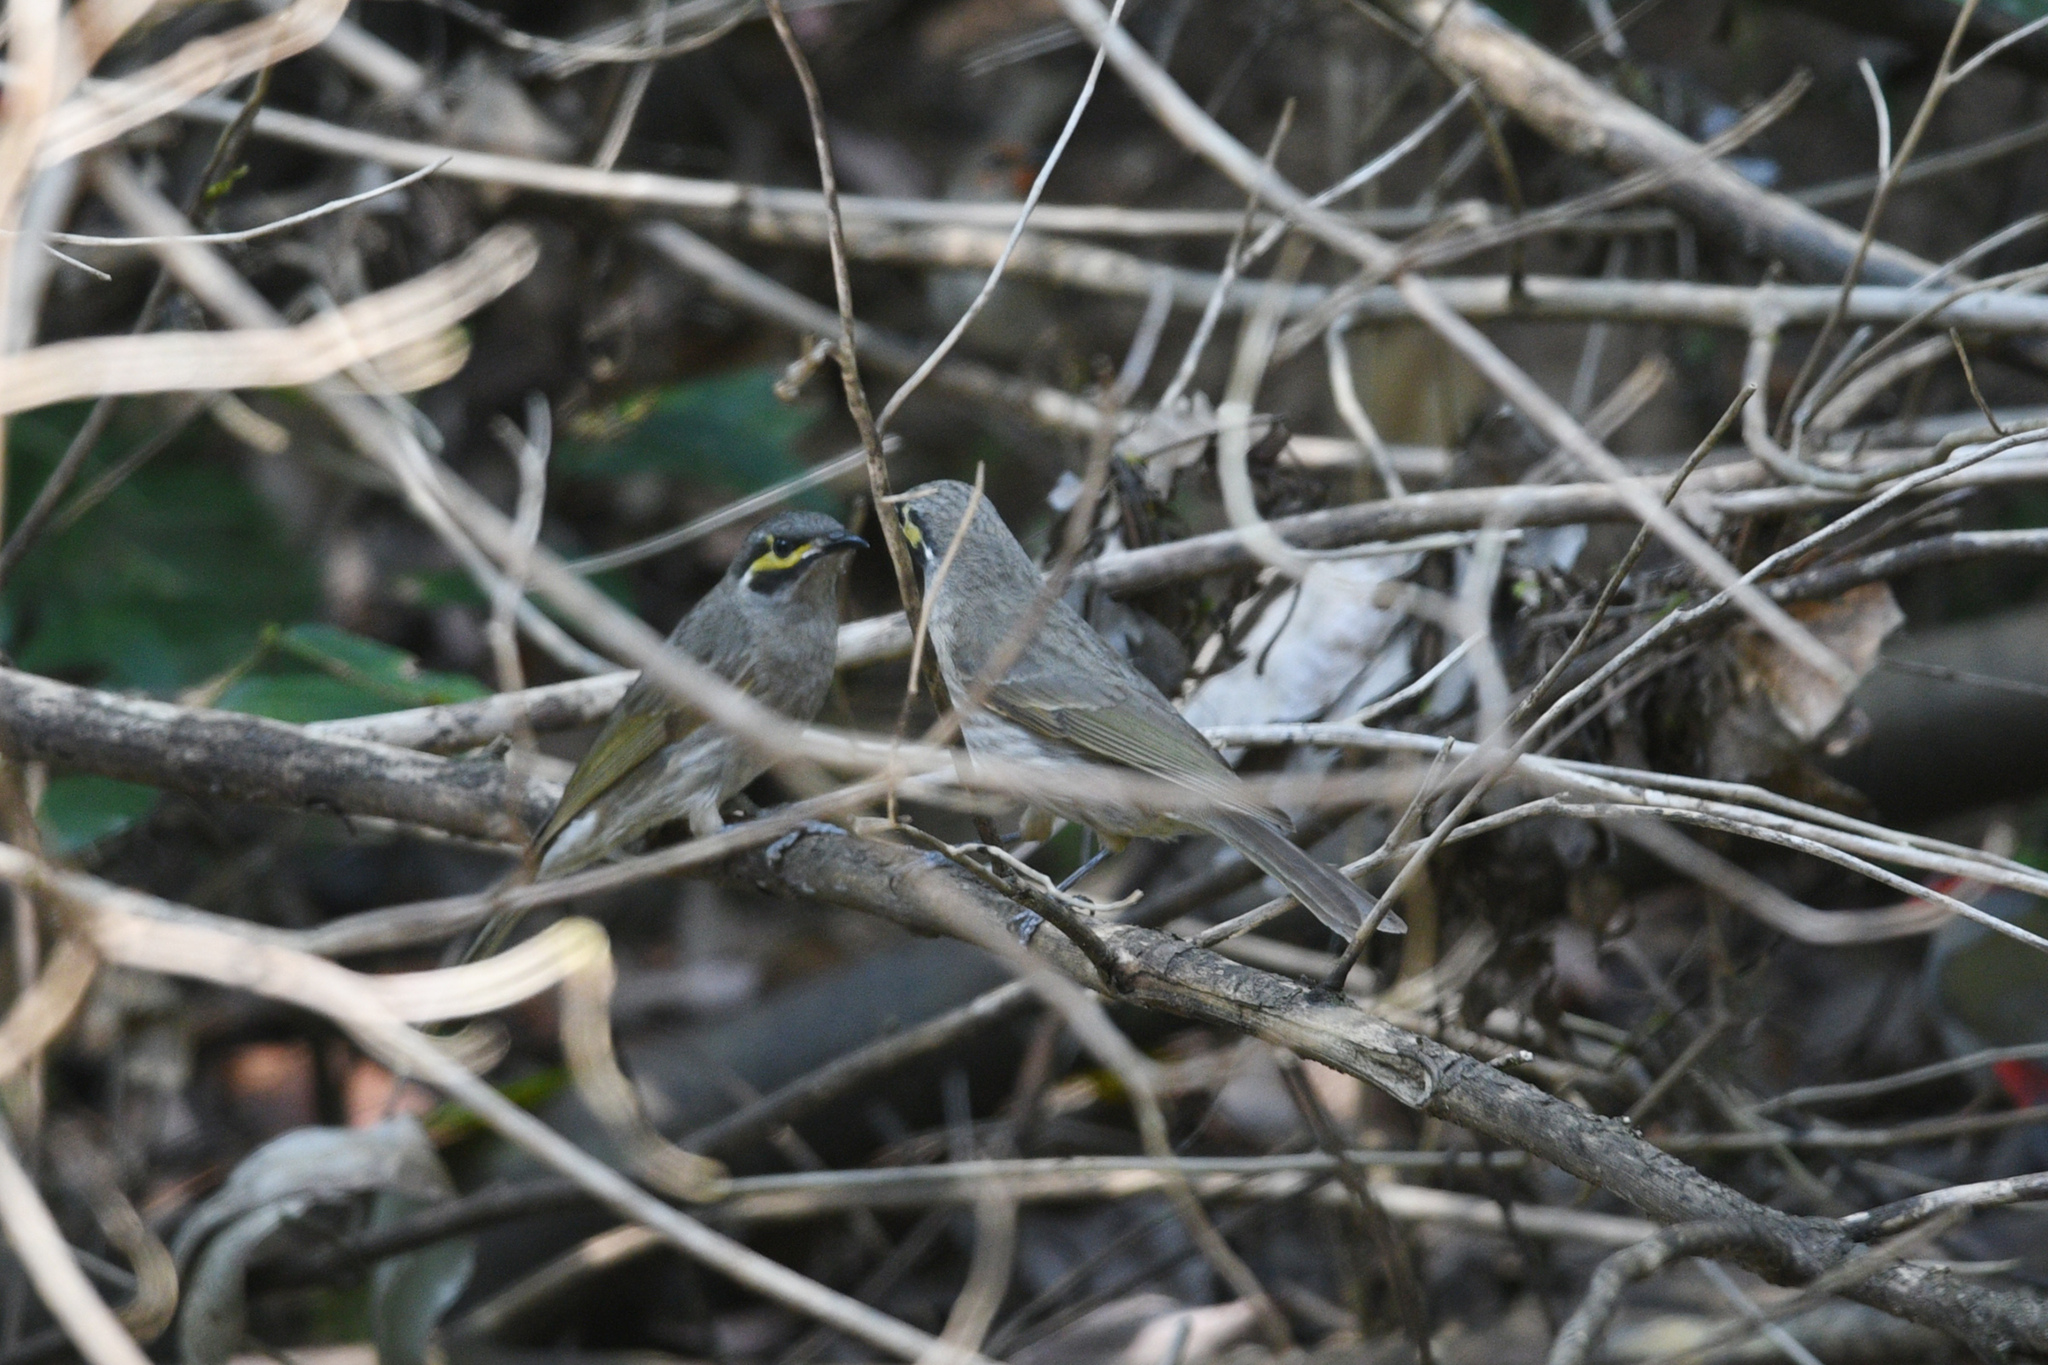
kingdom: Animalia
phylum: Chordata
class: Aves
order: Passeriformes
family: Meliphagidae
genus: Caligavis
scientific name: Caligavis chrysops
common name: Yellow-faced honeyeater
